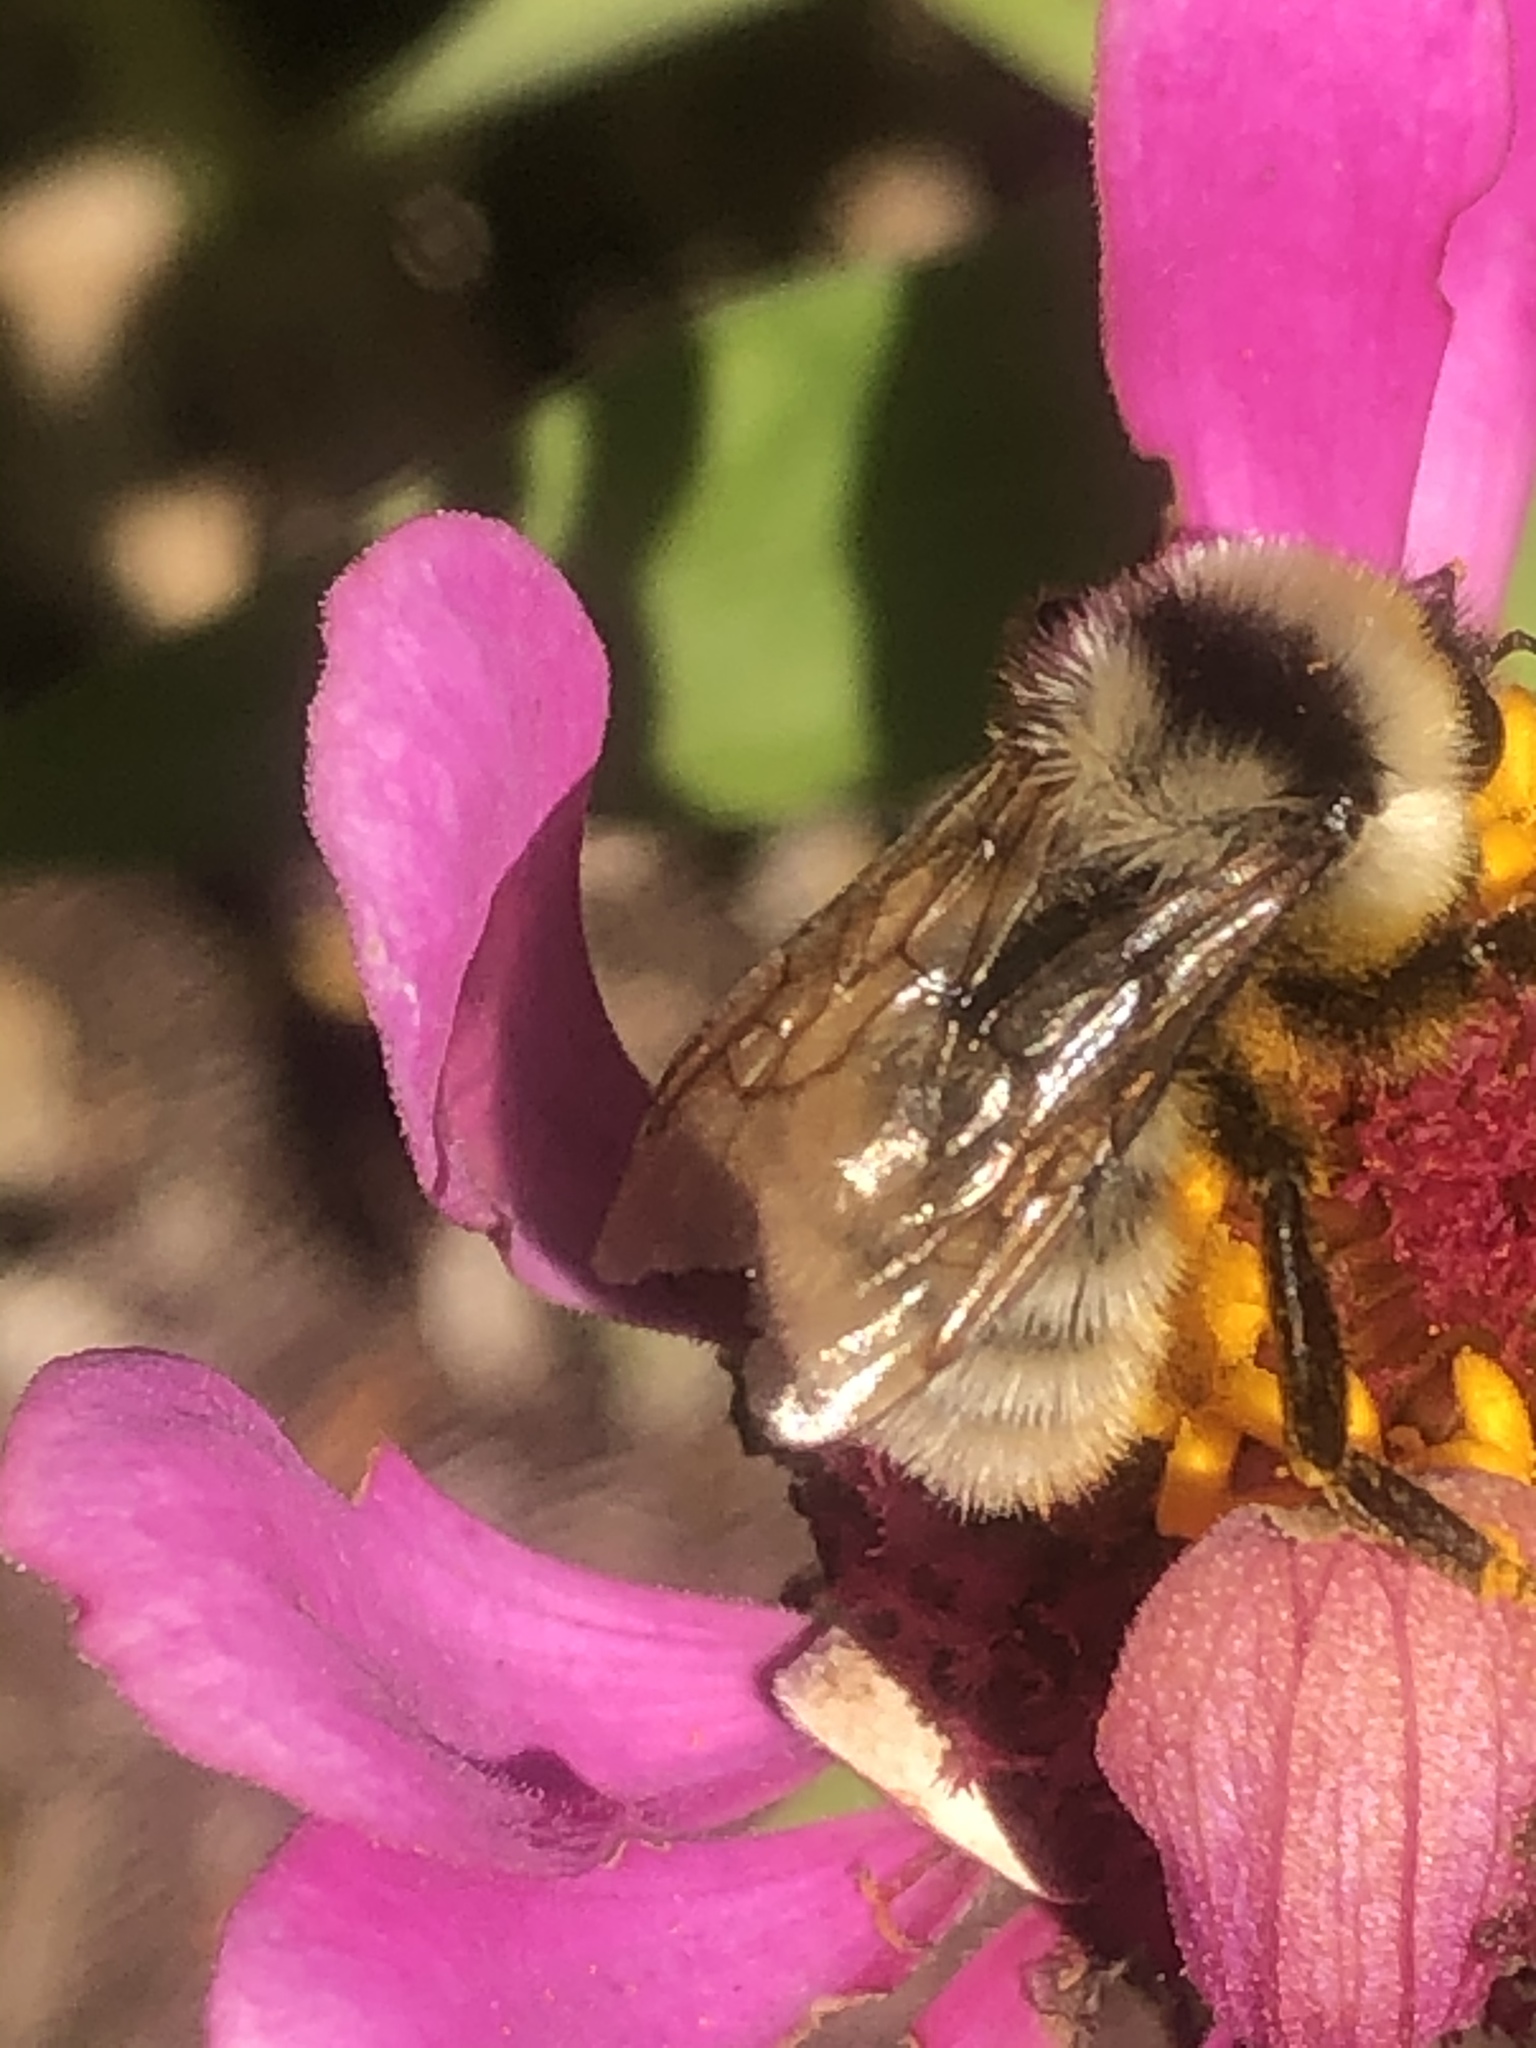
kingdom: Animalia
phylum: Arthropoda
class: Insecta
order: Hymenoptera
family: Apidae
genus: Bombus
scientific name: Bombus fervidus
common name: Yellow bumble bee
